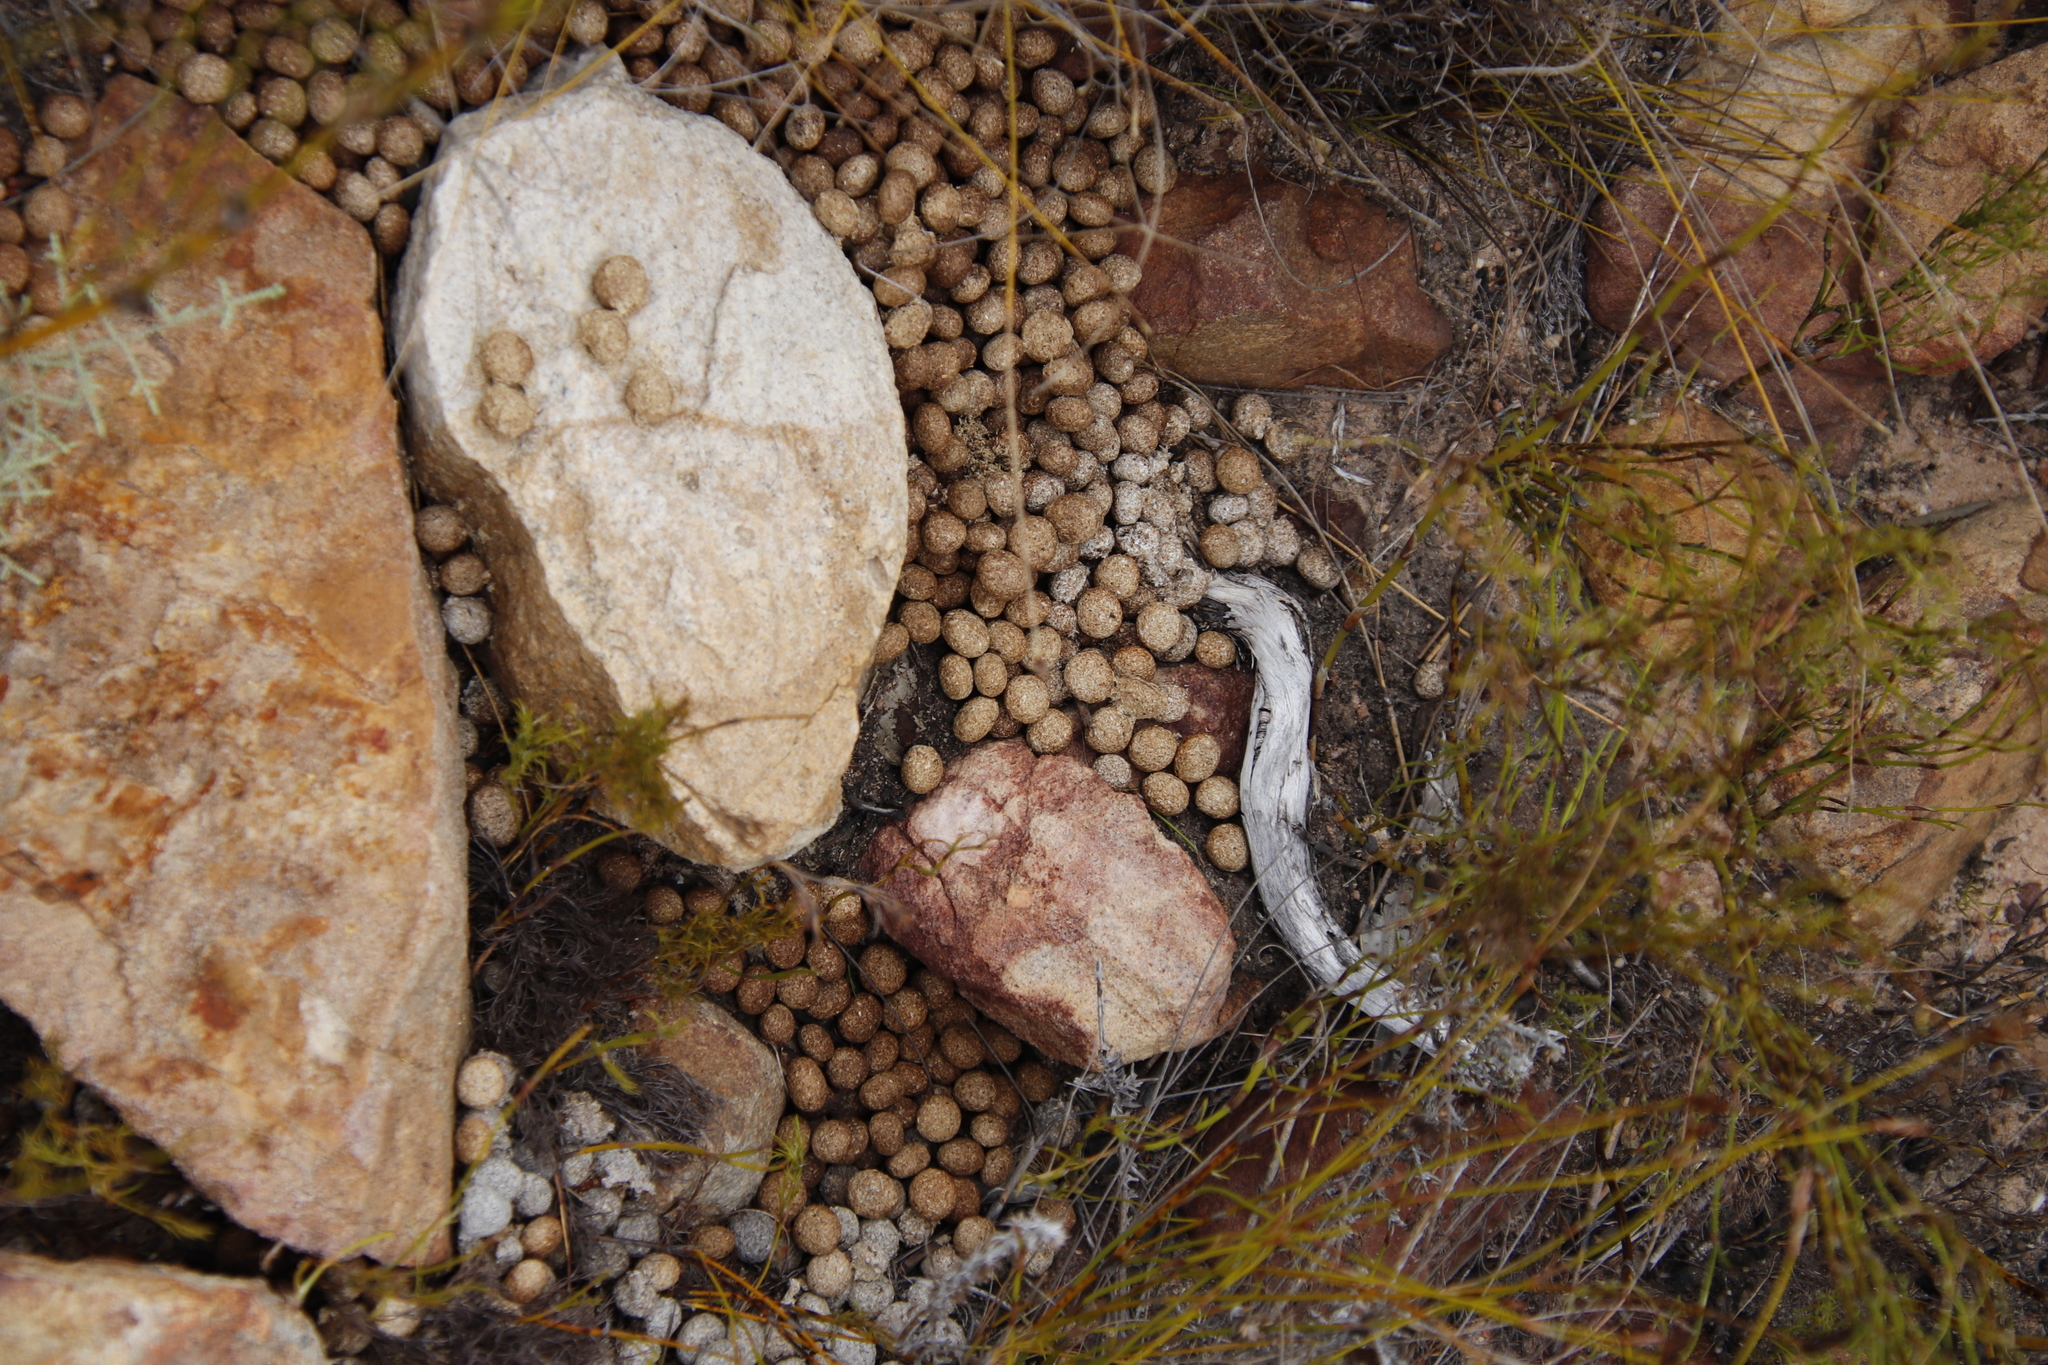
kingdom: Animalia
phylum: Chordata
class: Mammalia
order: Lagomorpha
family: Leporidae
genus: Pronolagus
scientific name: Pronolagus saundersiae
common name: Hewitt's red rock hare
